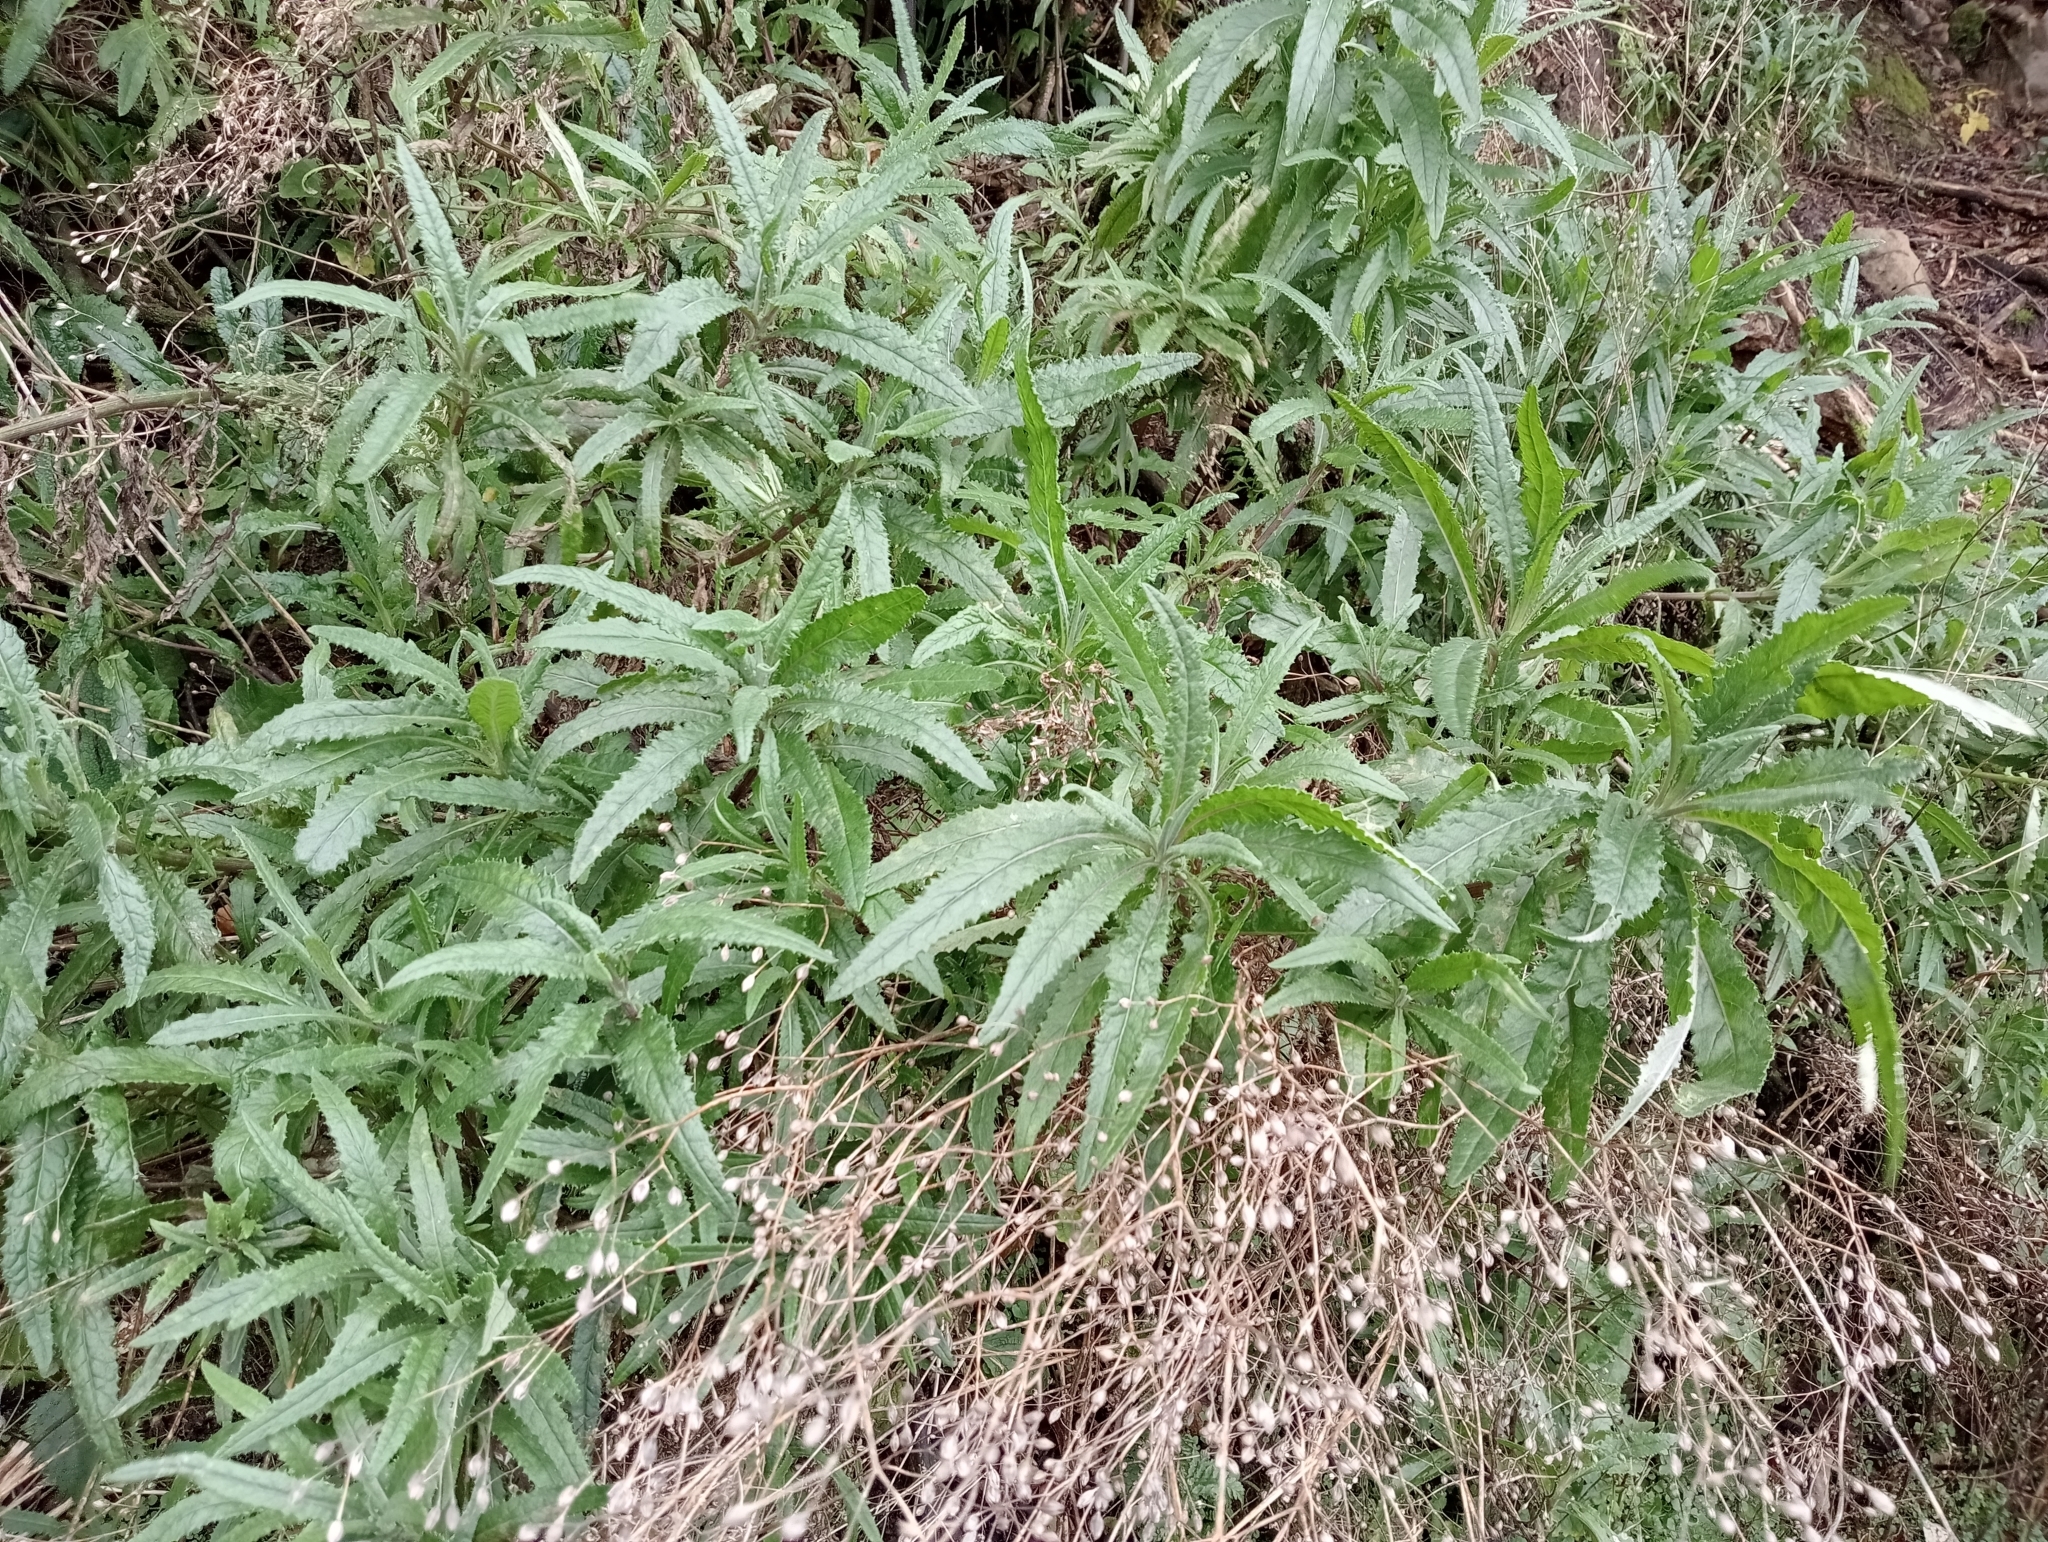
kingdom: Plantae
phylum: Tracheophyta
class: Magnoliopsida
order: Asterales
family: Asteraceae
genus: Senecio
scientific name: Senecio minimus
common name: Toothed fireweed
